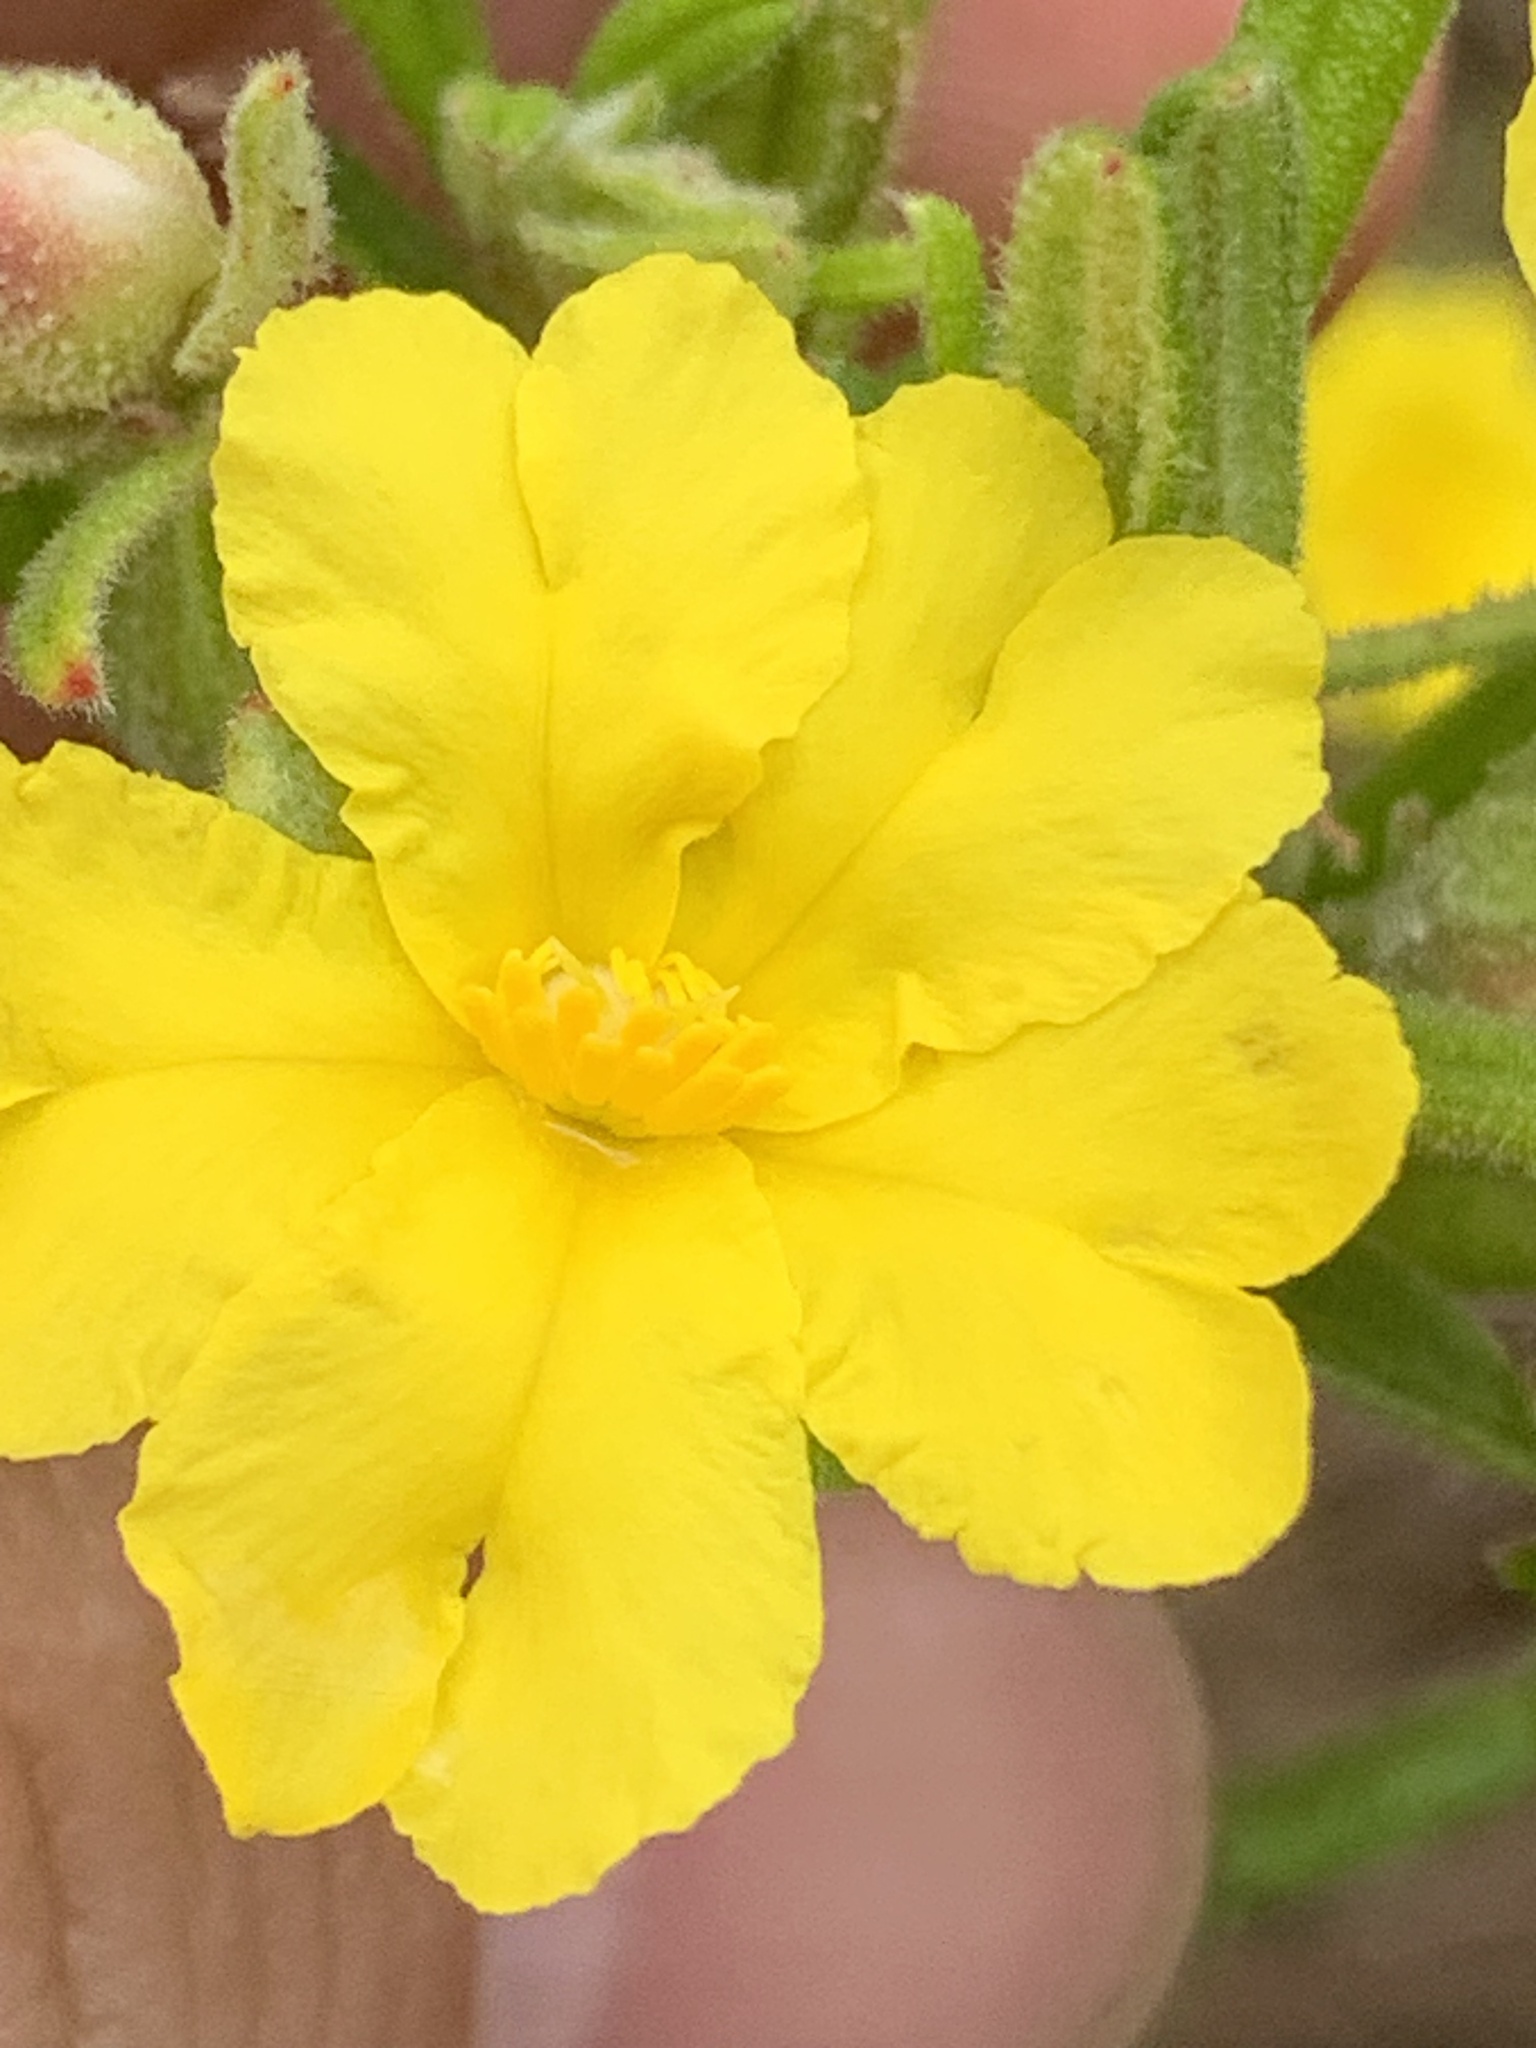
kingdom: Plantae
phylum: Tracheophyta
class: Magnoliopsida
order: Dilleniales
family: Dilleniaceae
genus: Hibbertia
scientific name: Hibbertia furfuracea
